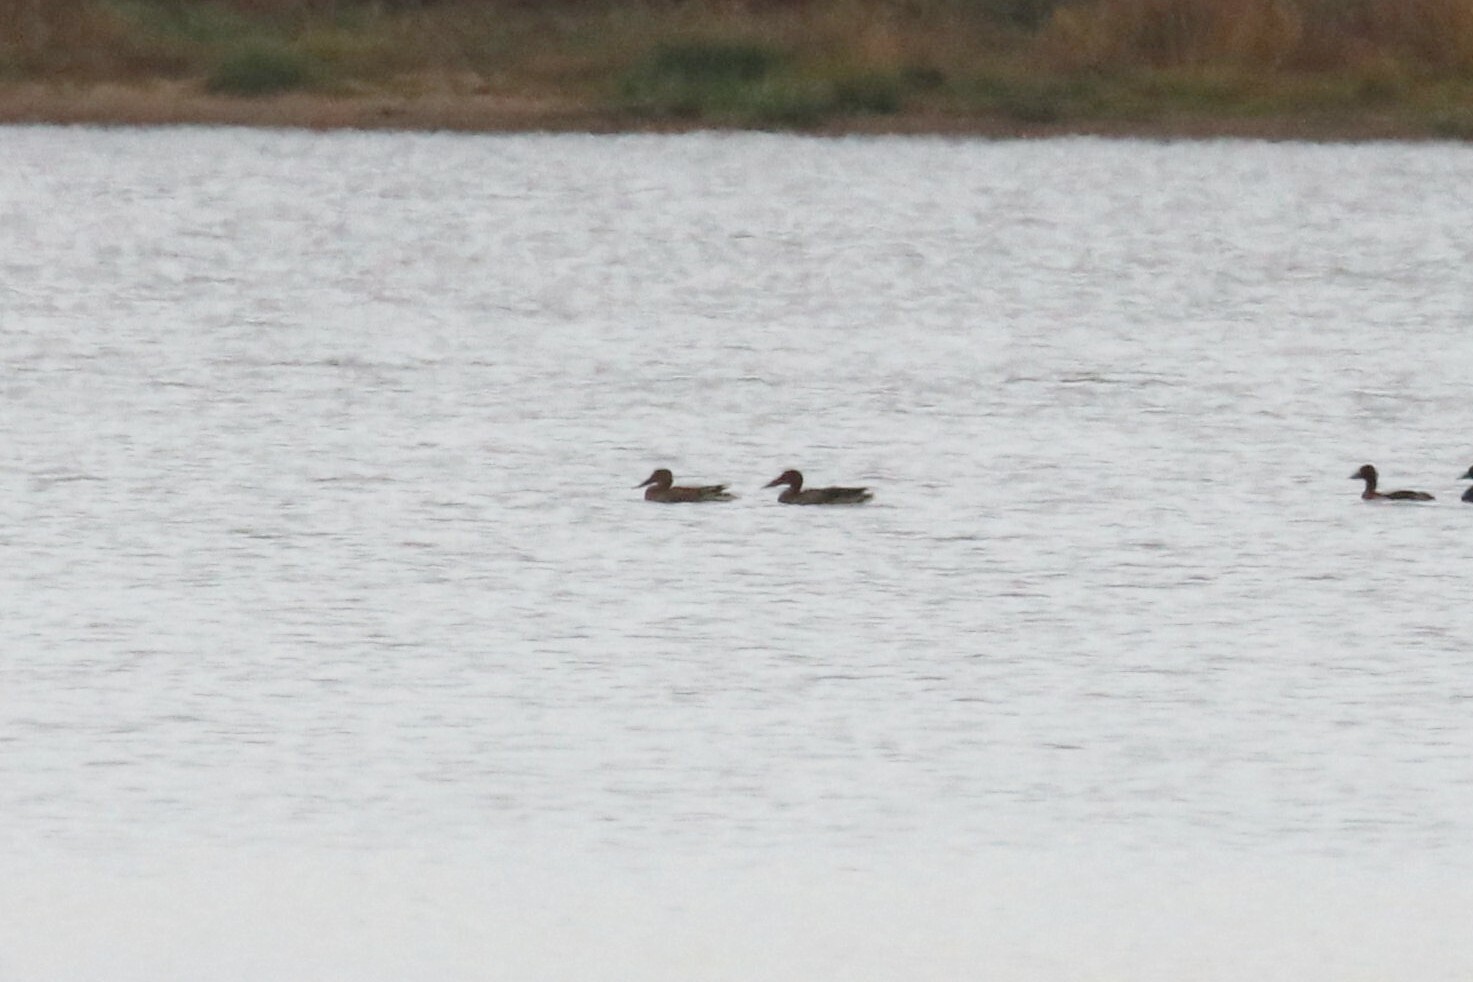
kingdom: Animalia
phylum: Chordata
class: Aves
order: Anseriformes
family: Anatidae
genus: Spatula
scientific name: Spatula clypeata
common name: Northern shoveler
